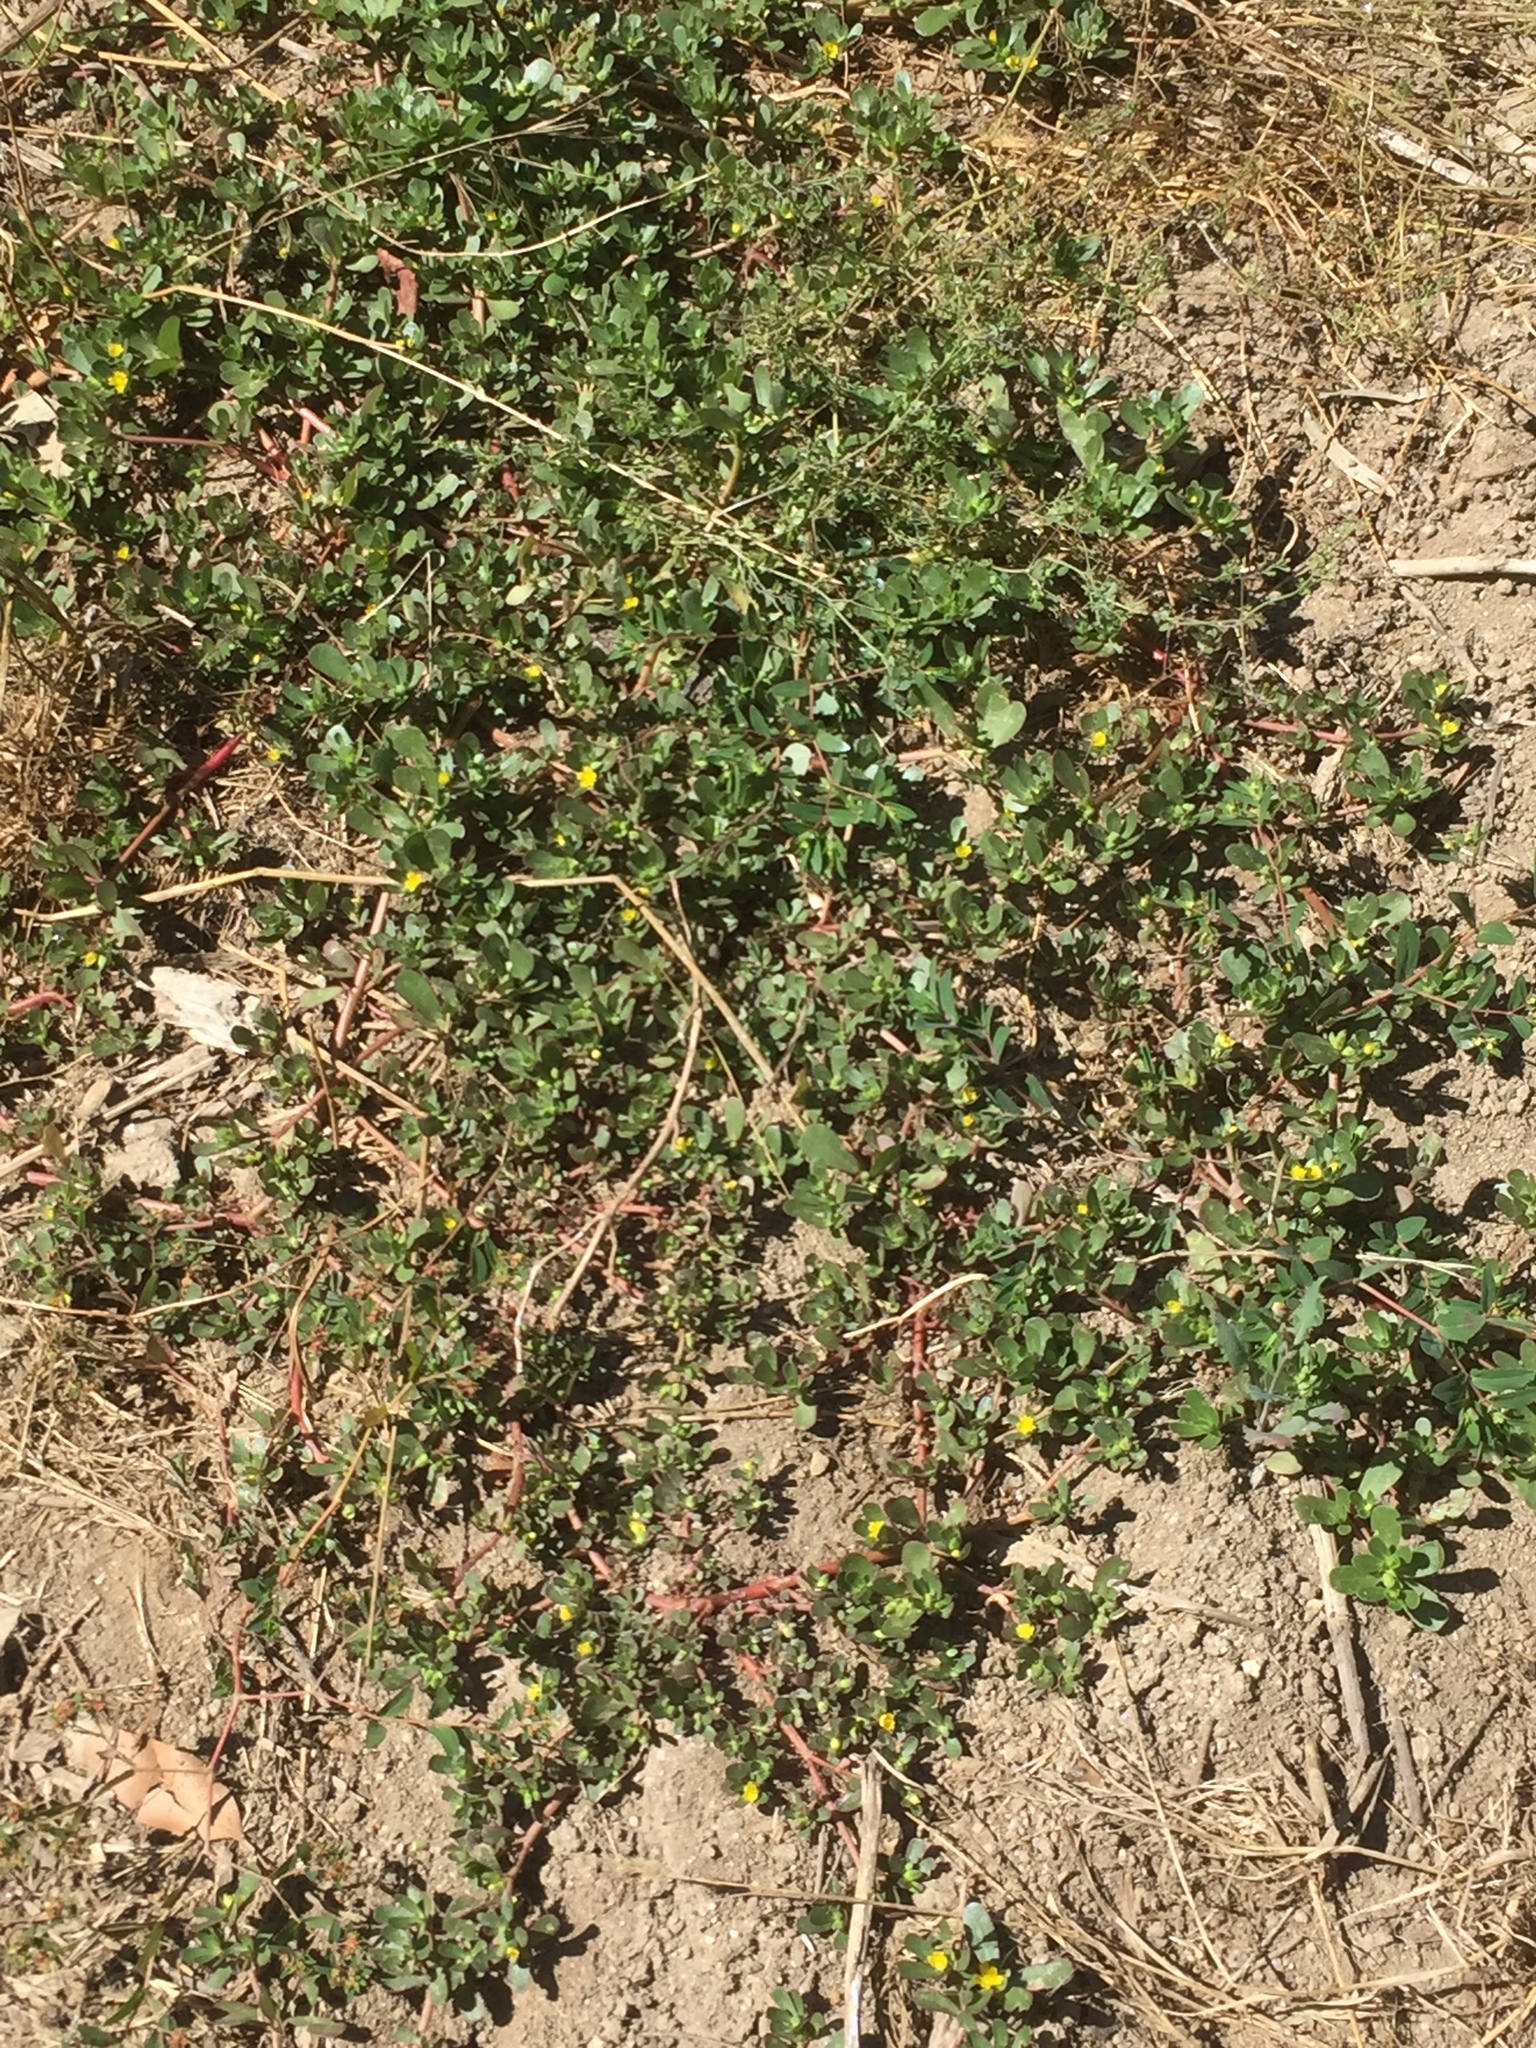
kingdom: Plantae
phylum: Tracheophyta
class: Magnoliopsida
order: Caryophyllales
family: Portulacaceae
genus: Portulaca
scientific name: Portulaca oleracea
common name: Common purslane
